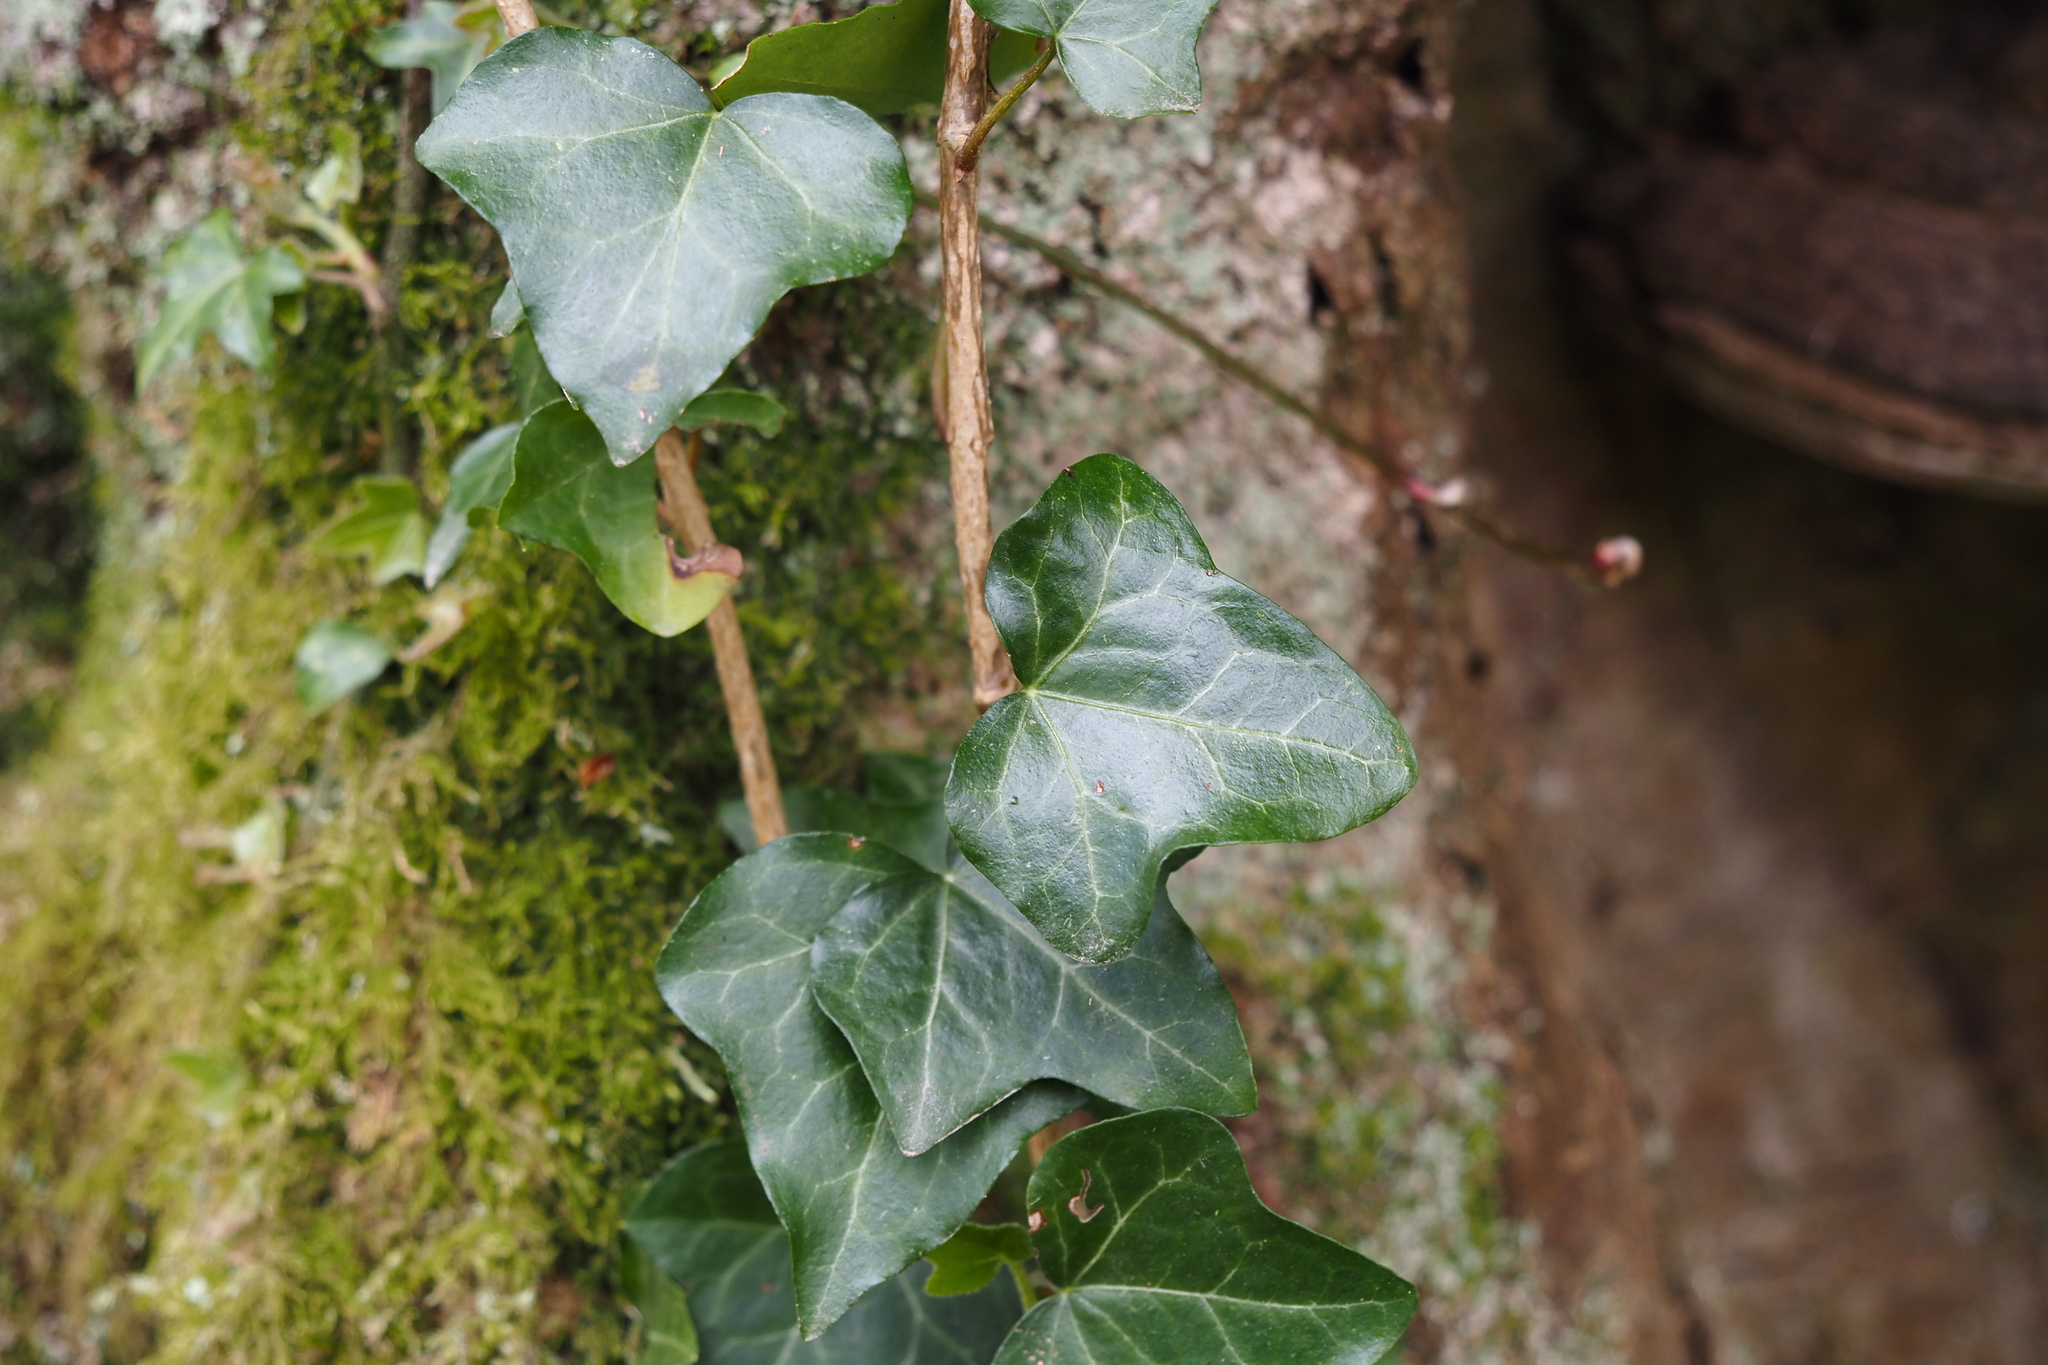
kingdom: Plantae
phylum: Tracheophyta
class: Magnoliopsida
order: Apiales
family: Araliaceae
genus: Hedera
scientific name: Hedera helix
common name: Ivy
